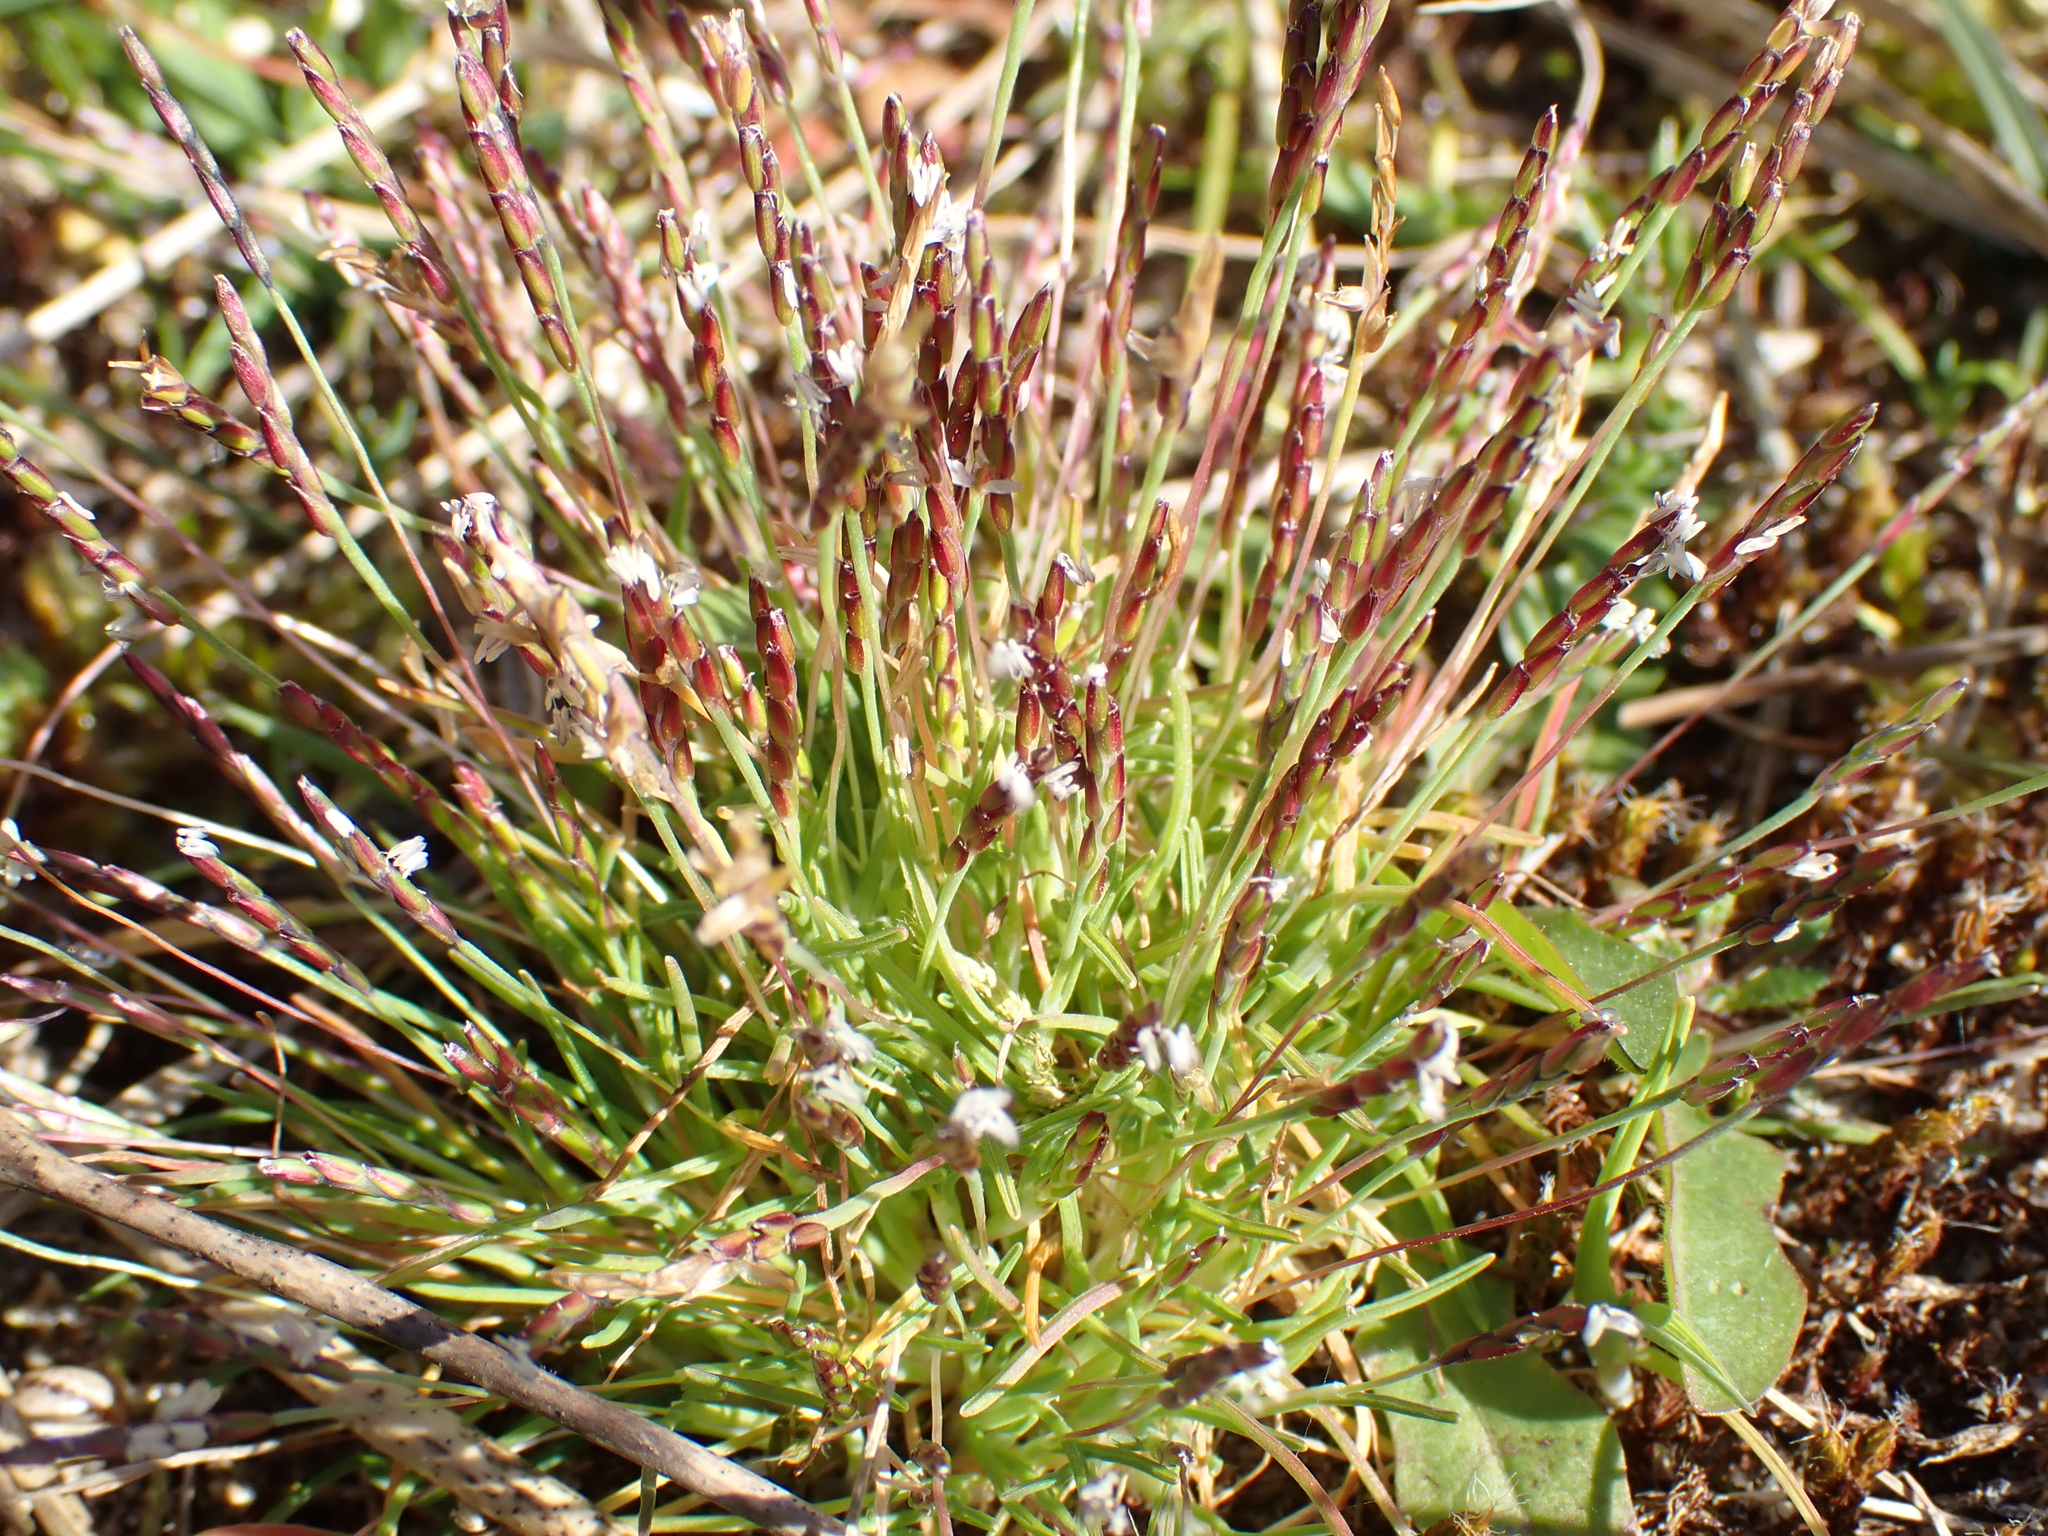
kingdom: Plantae
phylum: Tracheophyta
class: Liliopsida
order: Poales
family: Poaceae
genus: Mibora
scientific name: Mibora minima
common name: Early sand-grass
